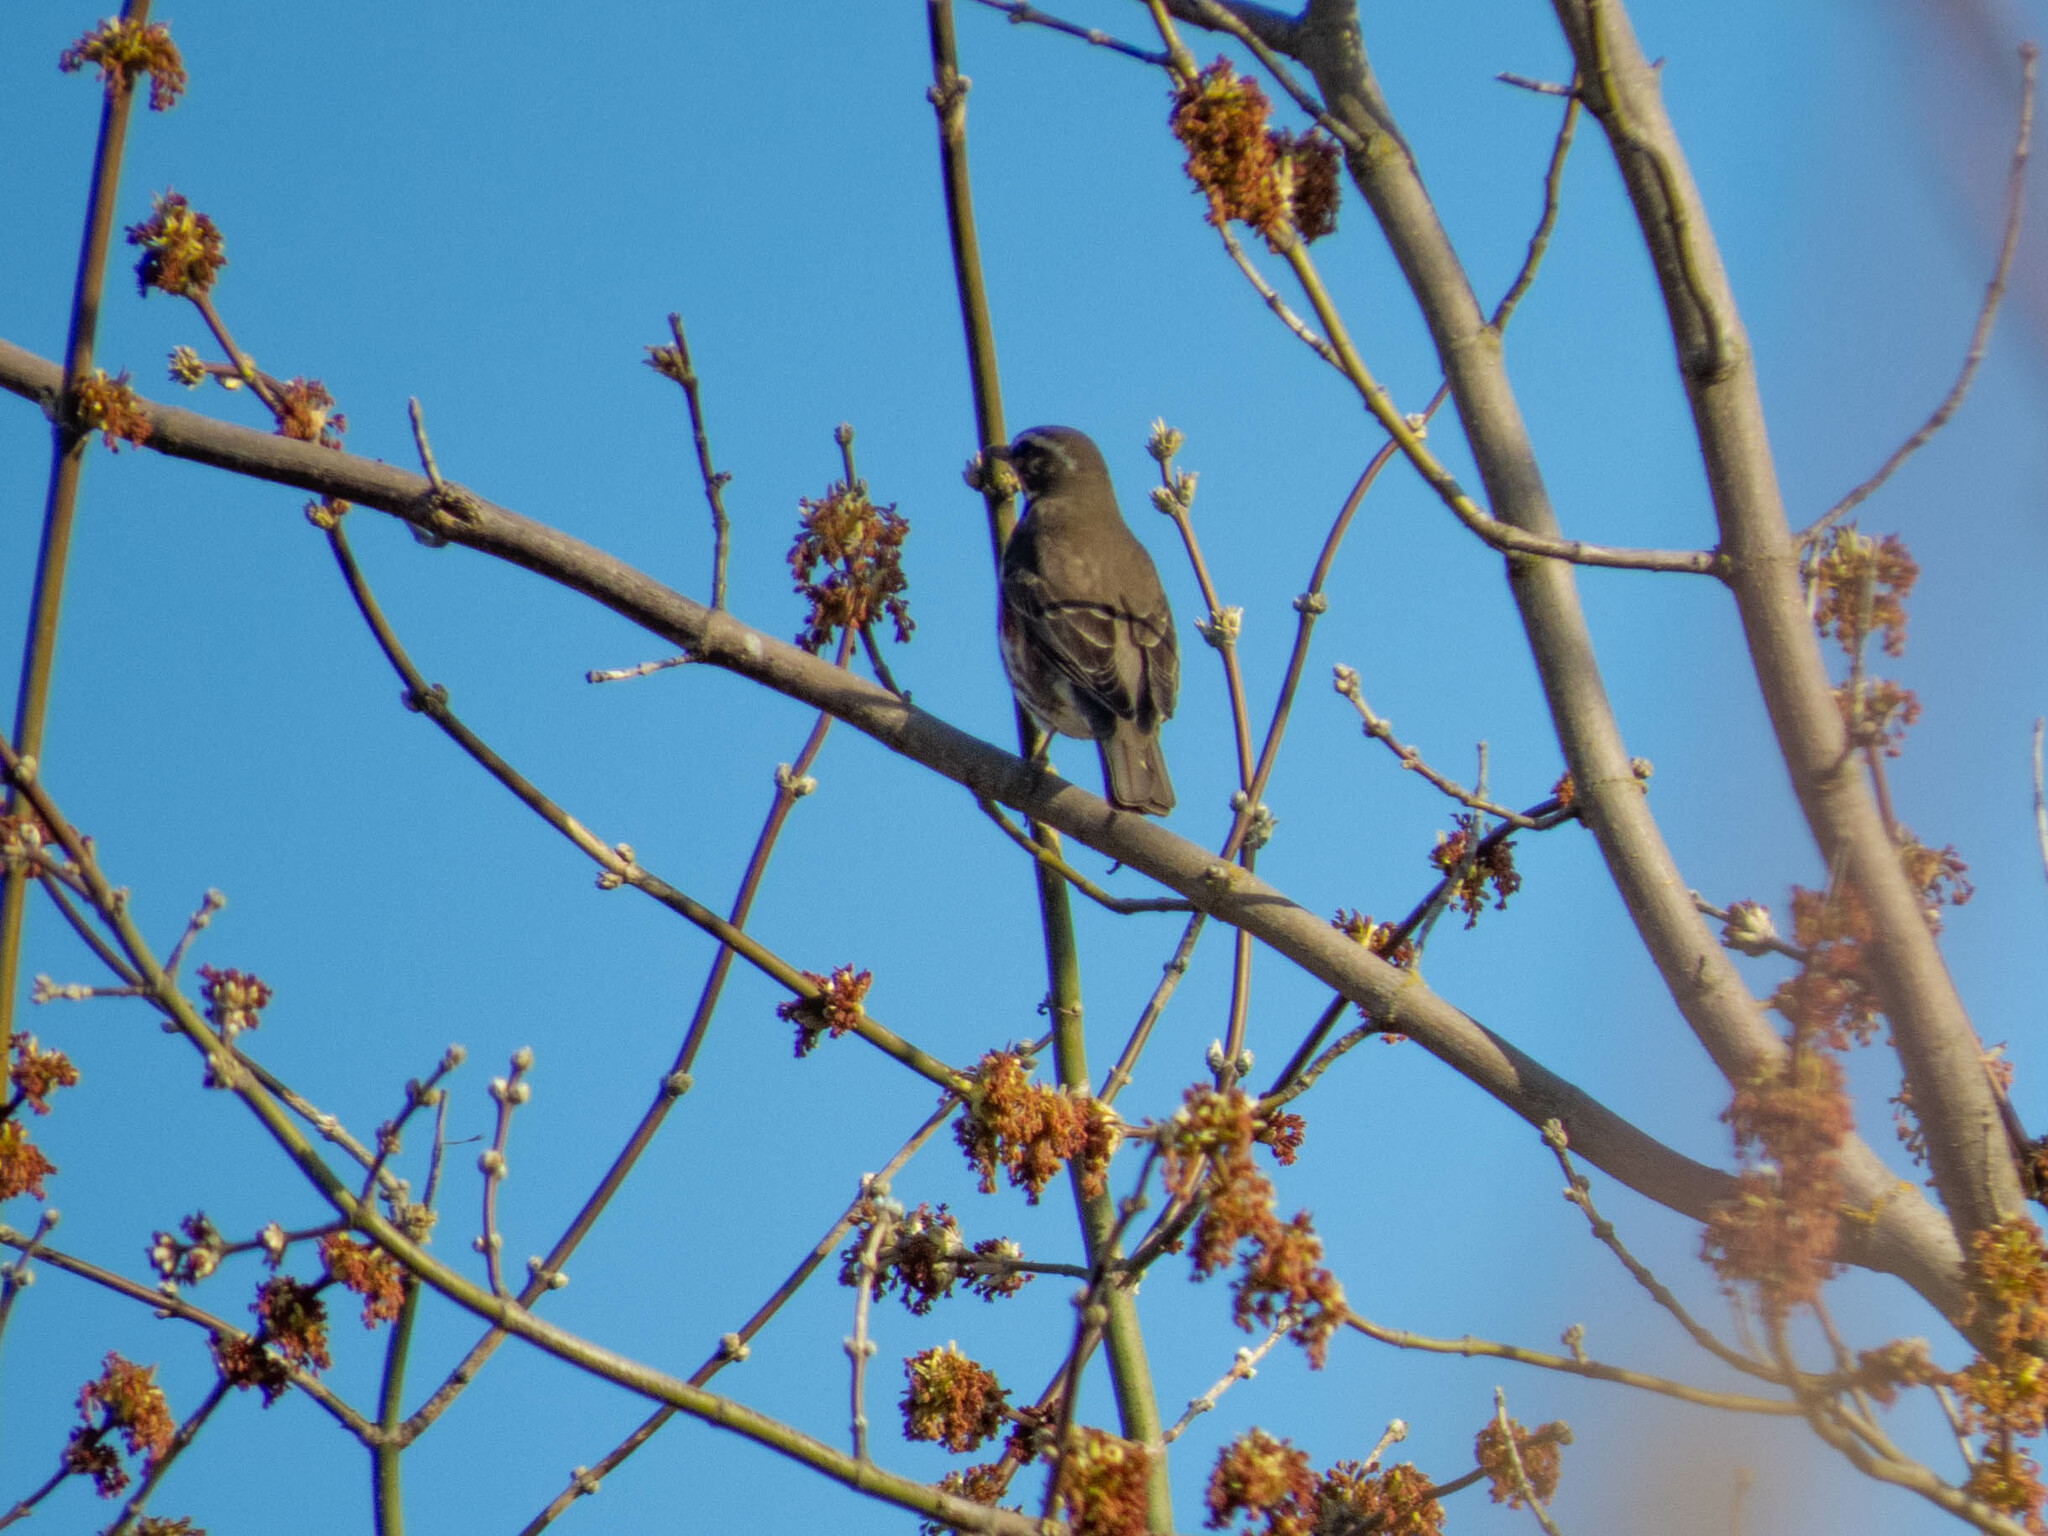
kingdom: Animalia
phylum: Chordata
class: Aves
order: Passeriformes
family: Turdidae
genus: Turdus
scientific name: Turdus iliacus
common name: Redwing
